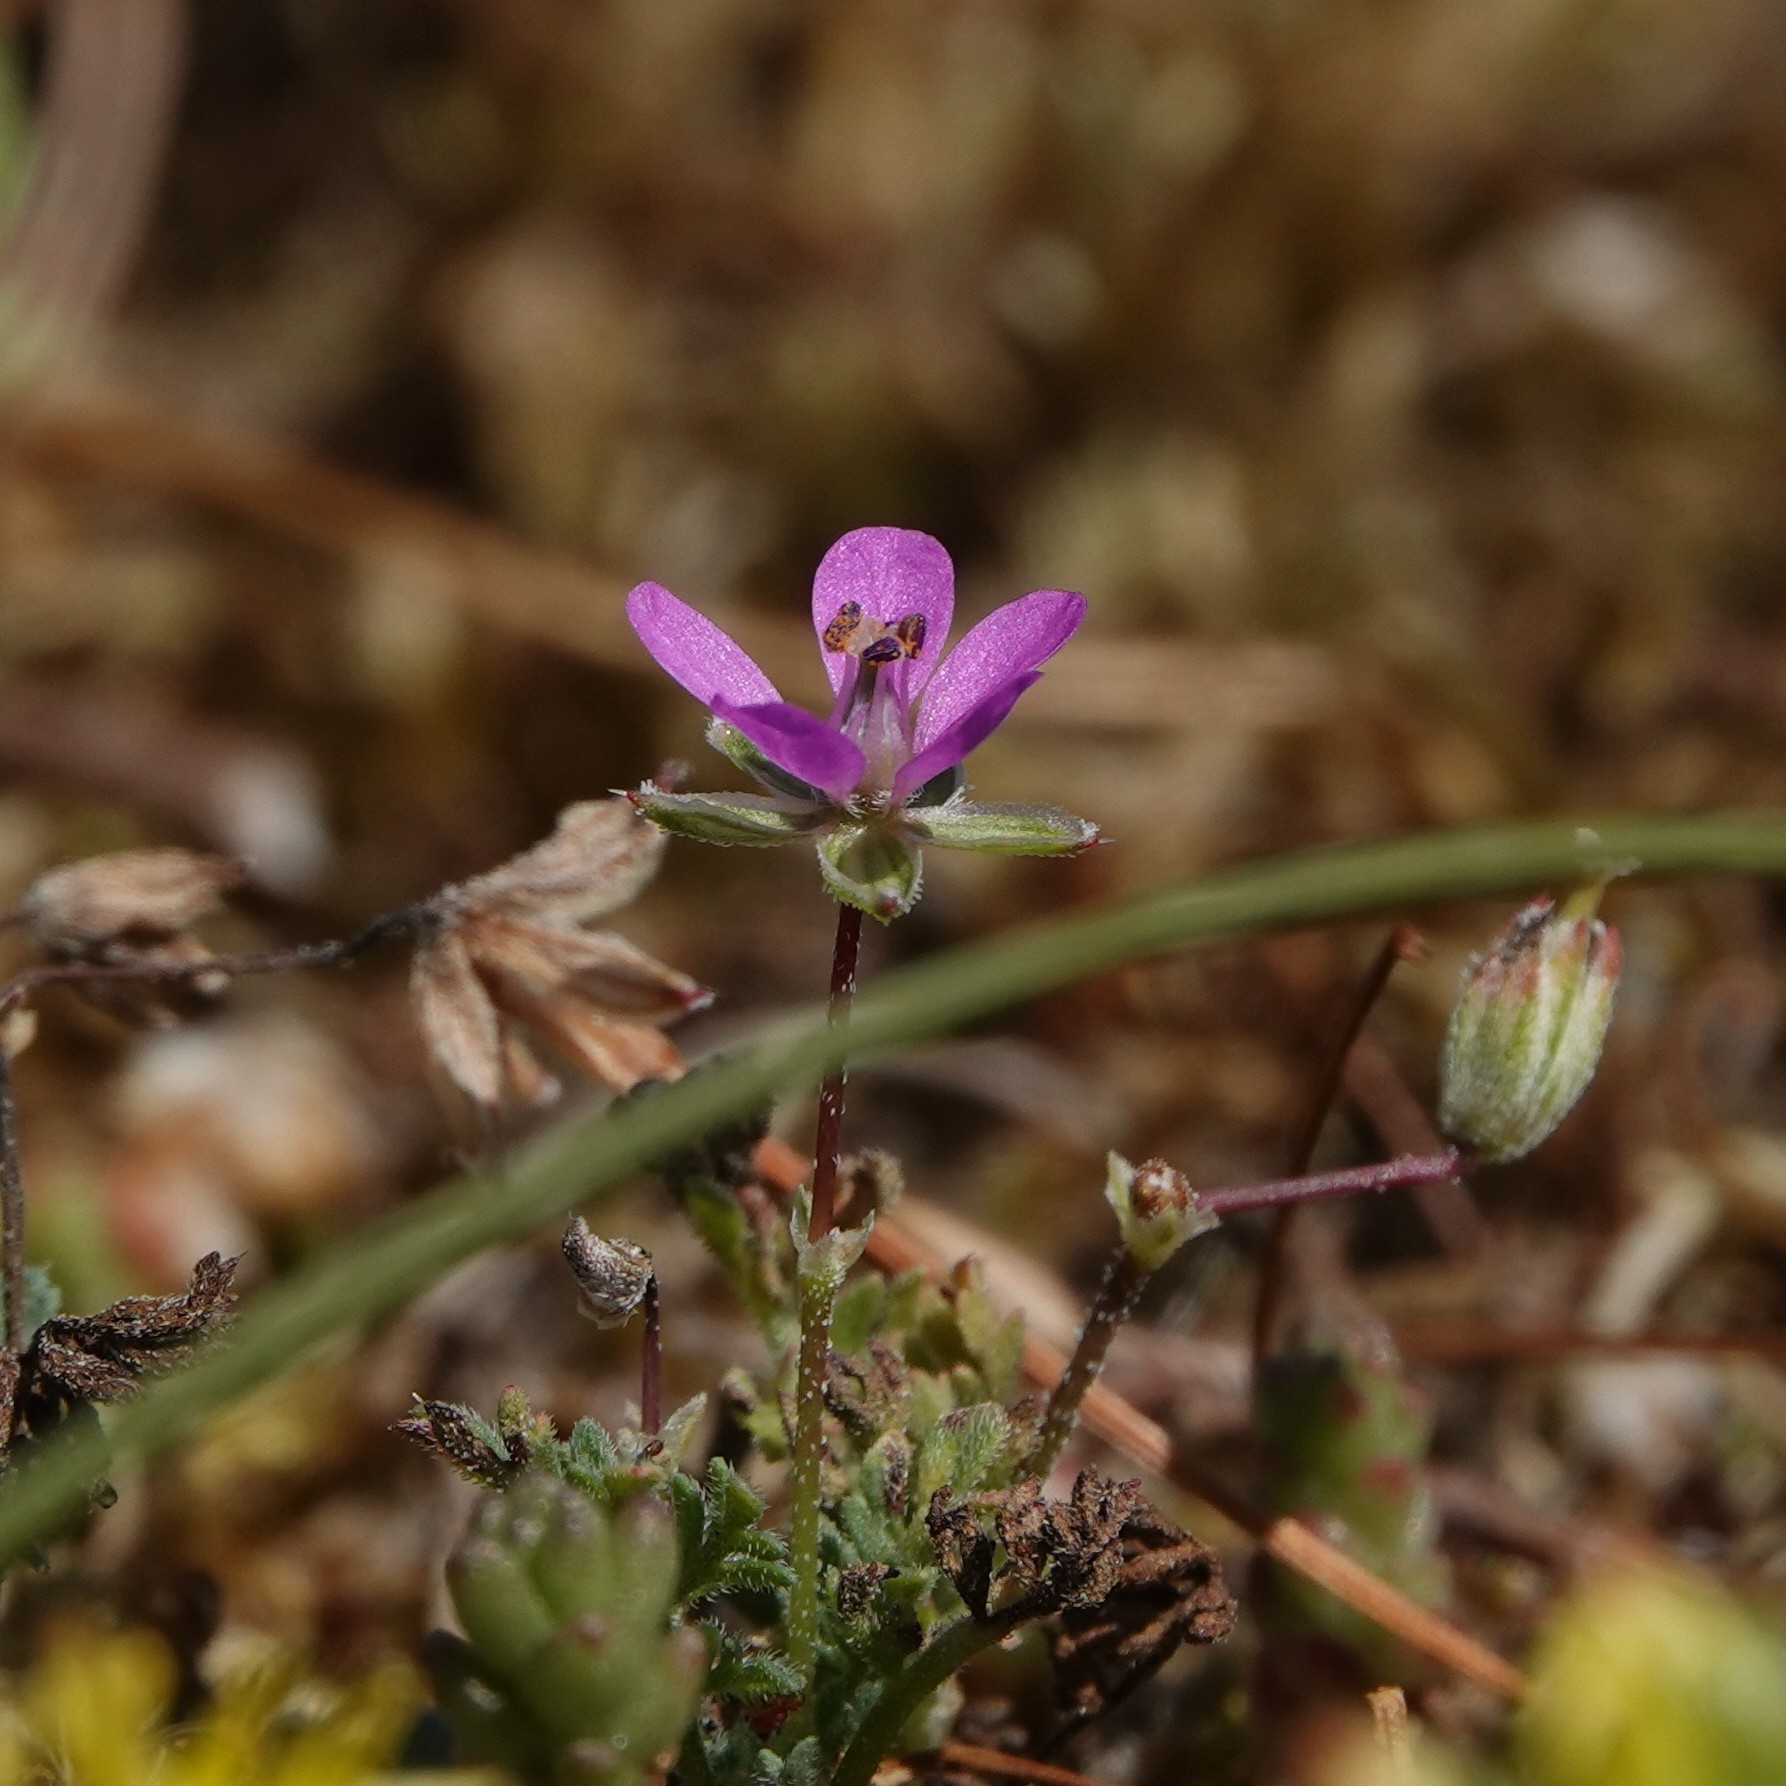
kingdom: Plantae
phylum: Tracheophyta
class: Magnoliopsida
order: Geraniales
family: Geraniaceae
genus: Erodium
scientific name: Erodium cicutarium
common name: Common stork's-bill
